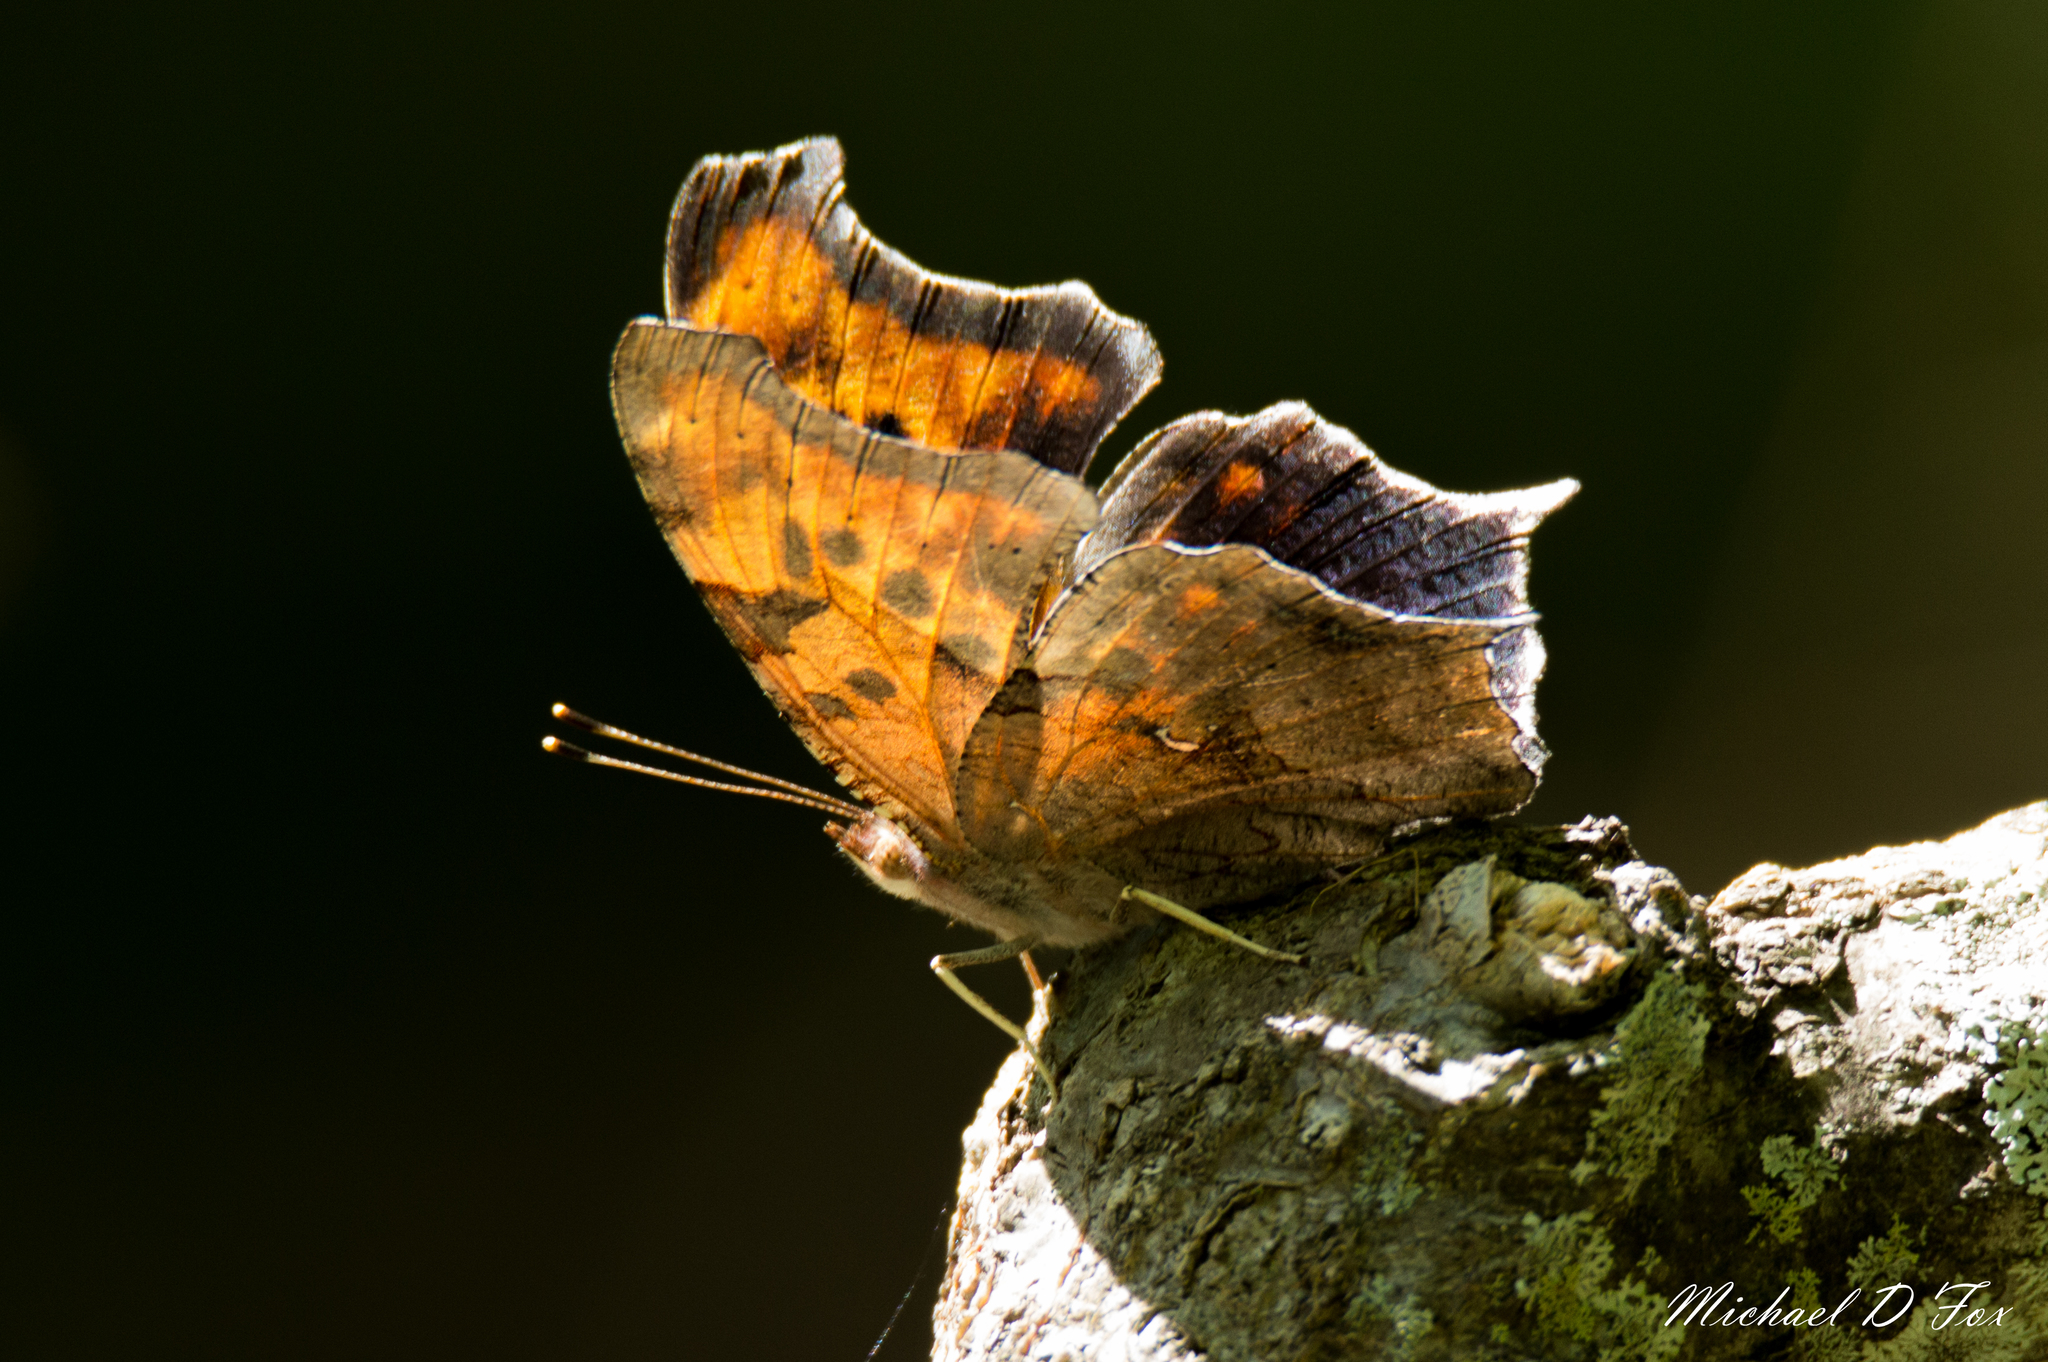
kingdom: Animalia
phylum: Arthropoda
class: Insecta
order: Lepidoptera
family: Nymphalidae
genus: Polygonia
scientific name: Polygonia interrogationis
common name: Question mark
